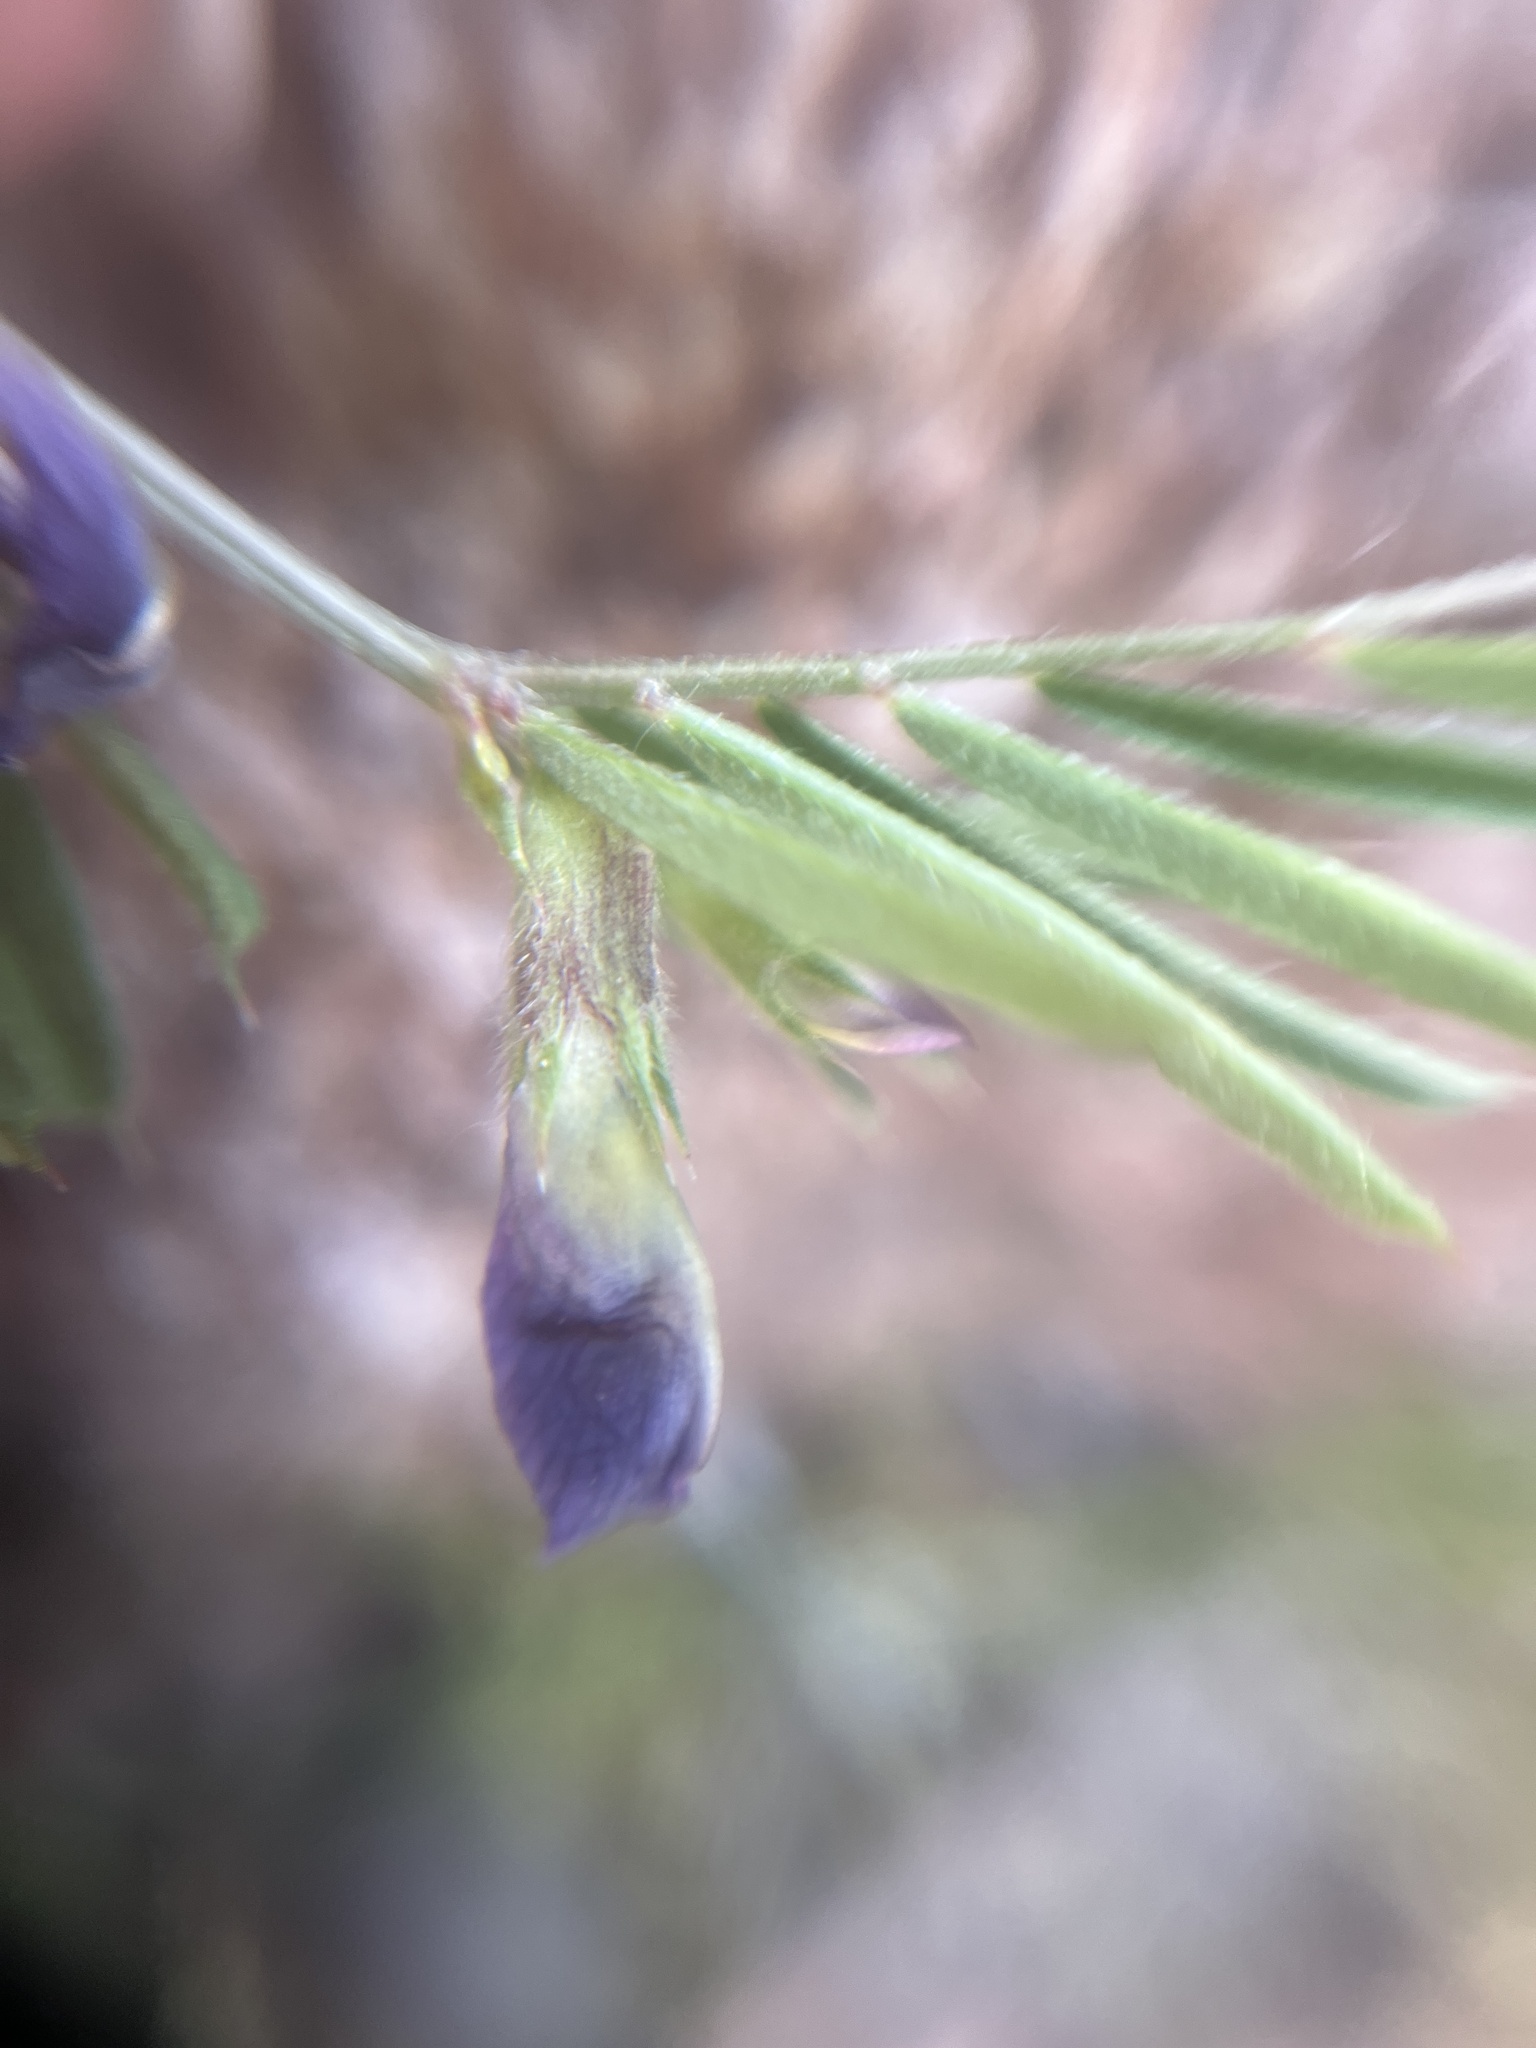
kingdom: Plantae
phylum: Tracheophyta
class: Magnoliopsida
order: Fabales
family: Fabaceae
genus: Vicia
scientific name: Vicia sativa
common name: Garden vetch
